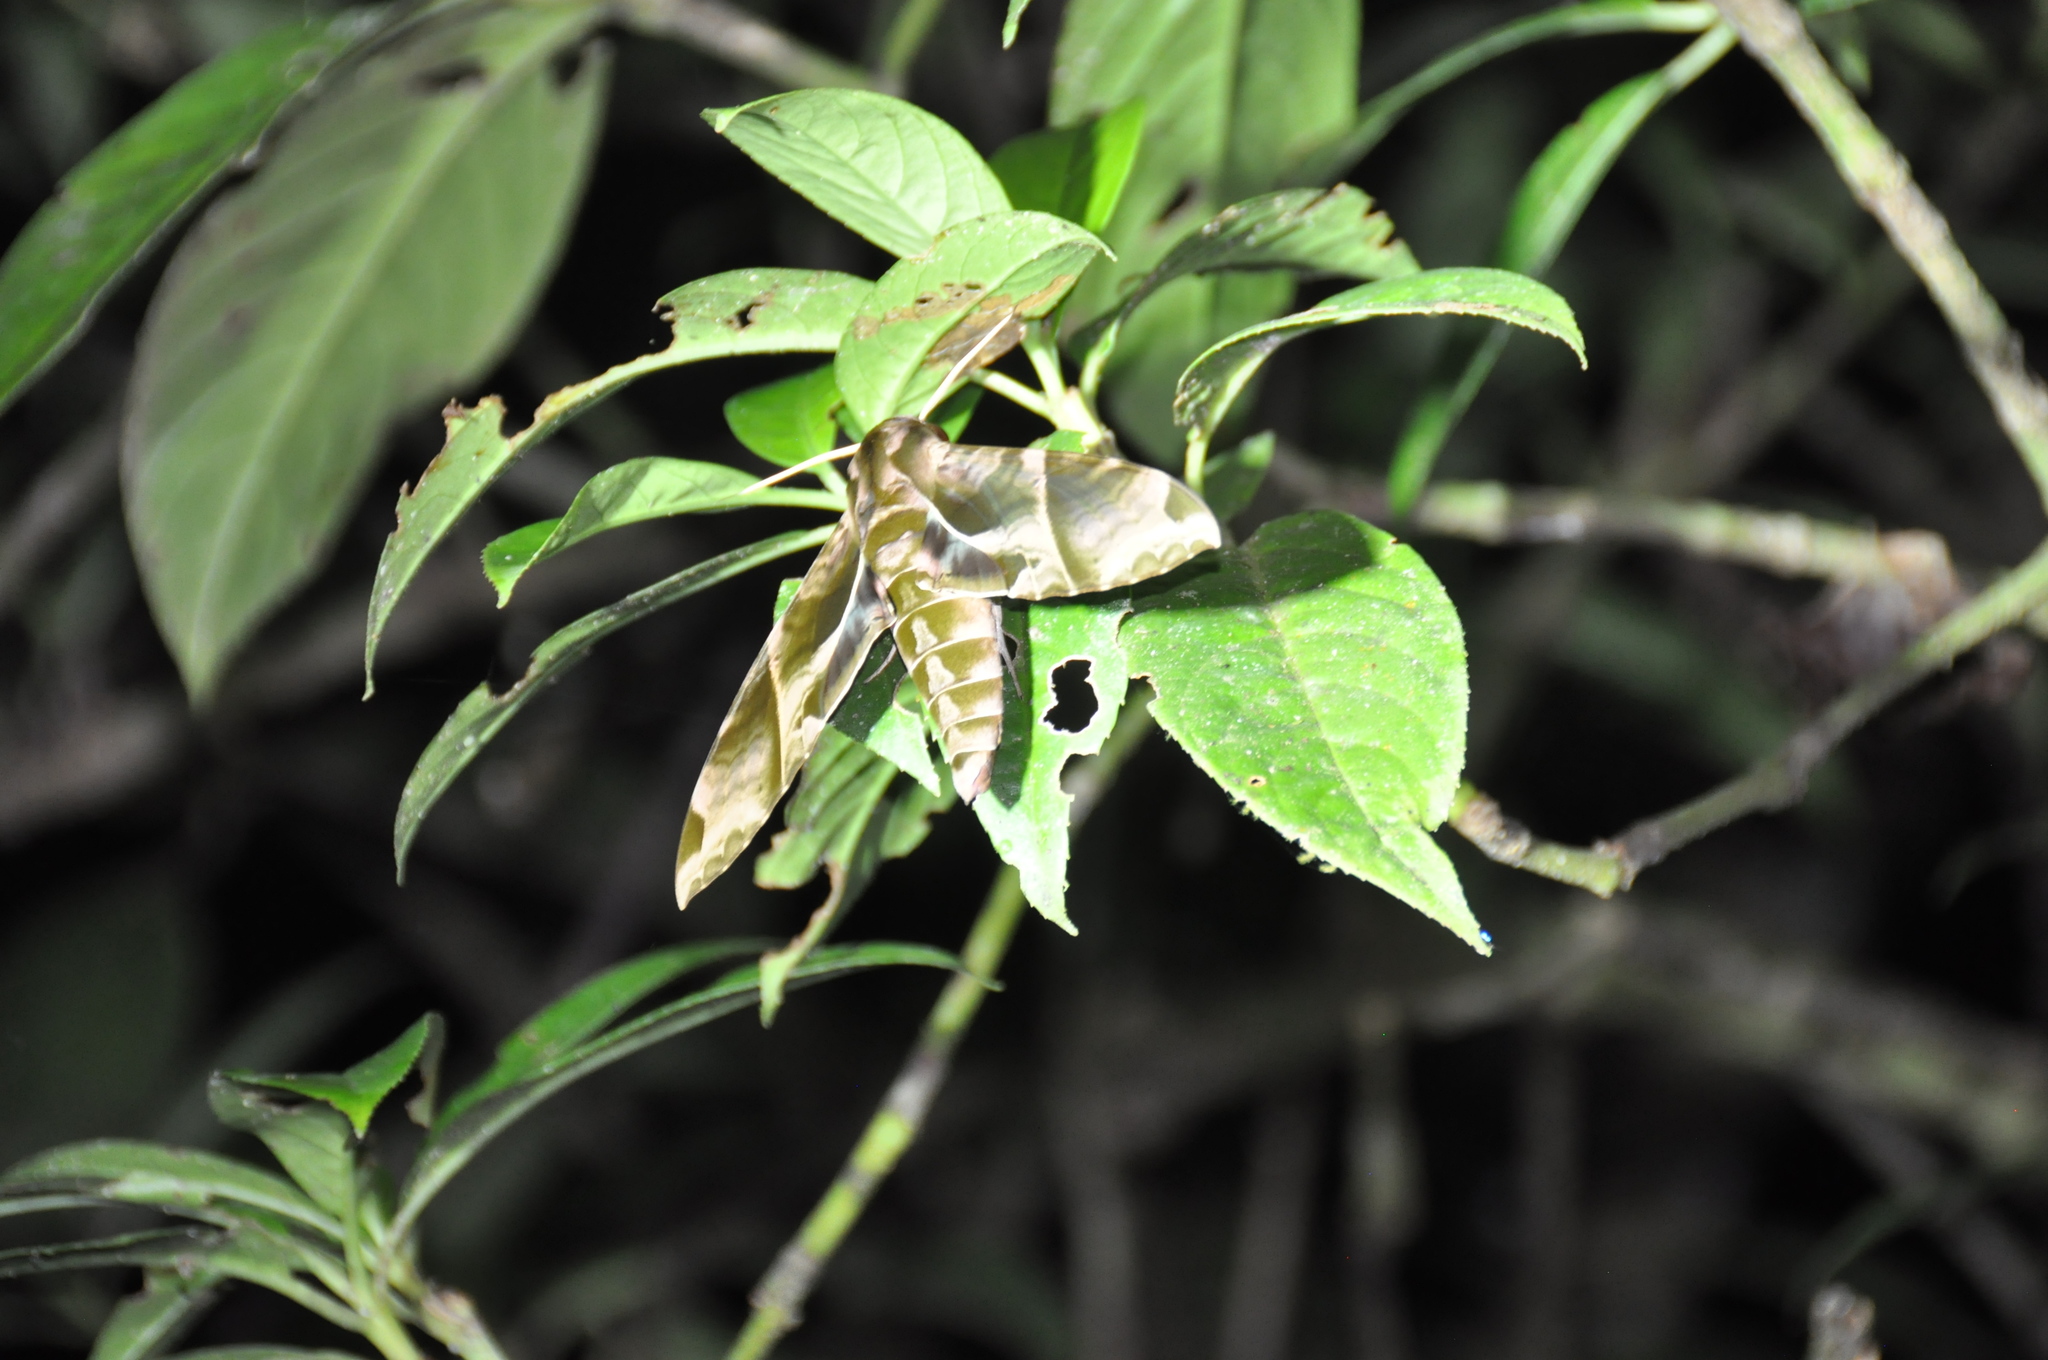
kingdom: Animalia
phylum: Arthropoda
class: Insecta
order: Lepidoptera
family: Sphingidae
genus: Eumorpha
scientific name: Eumorpha anchemolus
